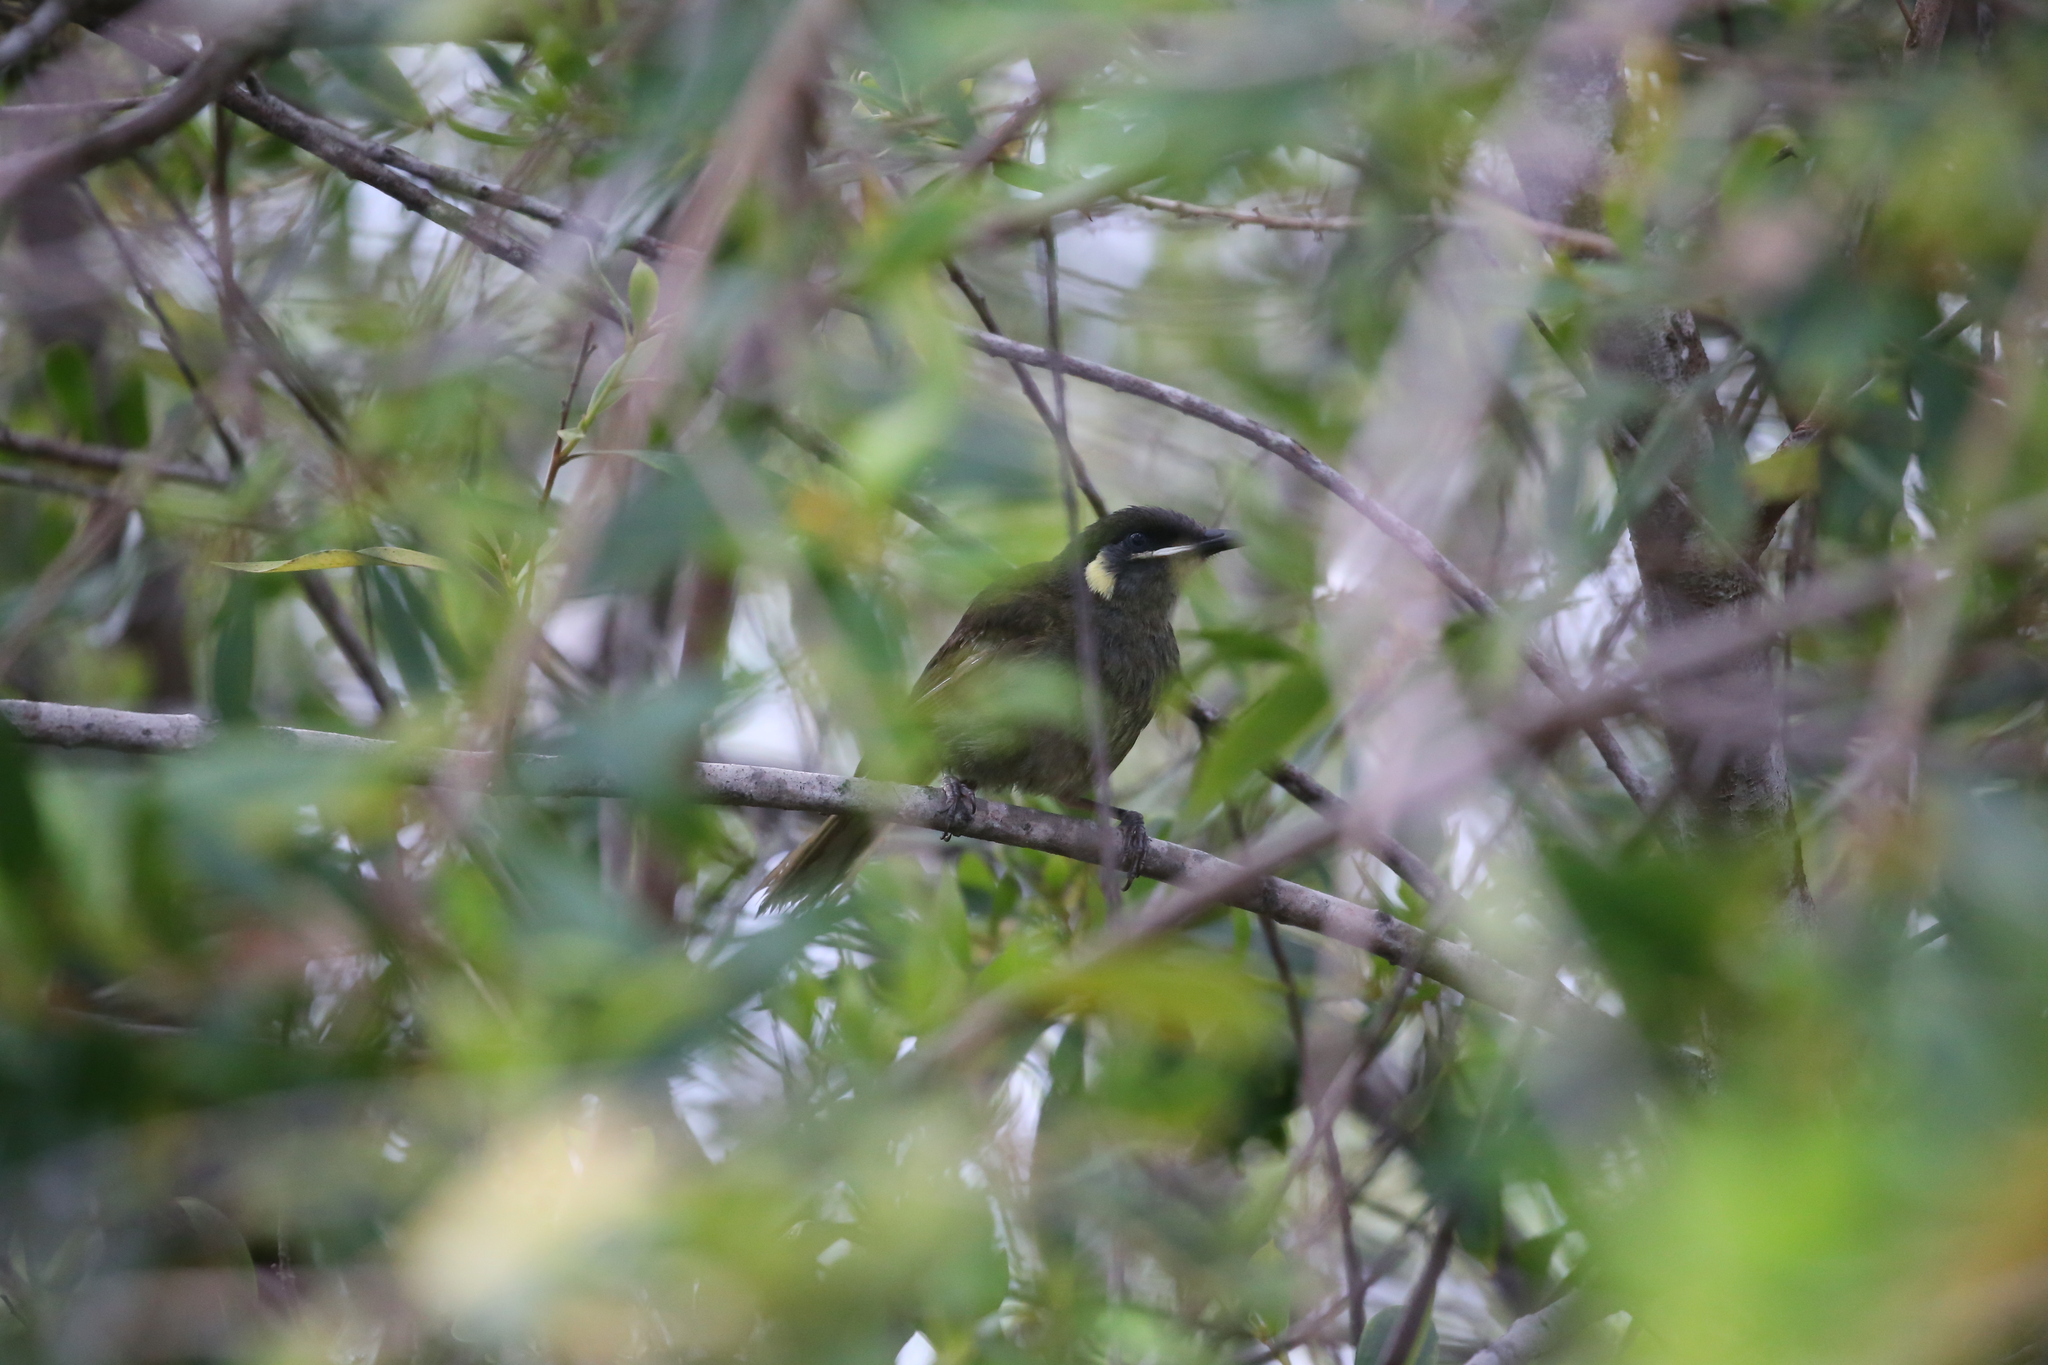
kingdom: Animalia
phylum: Chordata
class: Aves
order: Passeriformes
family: Meliphagidae
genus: Meliphaga
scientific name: Meliphaga lewinii
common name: Lewin's honeyeater
